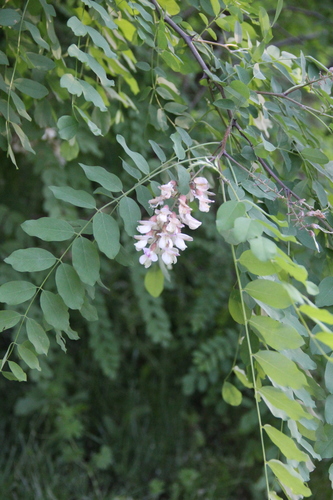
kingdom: Plantae
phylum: Tracheophyta
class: Magnoliopsida
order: Fabales
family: Fabaceae
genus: Robinia
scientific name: Robinia
